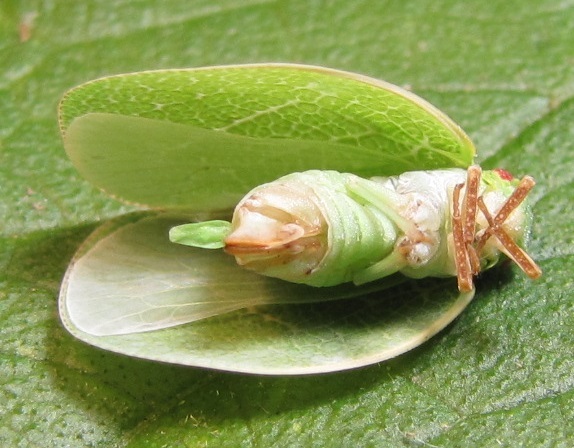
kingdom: Animalia
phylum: Arthropoda
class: Insecta
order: Hemiptera
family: Acanaloniidae
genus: Acanalonia
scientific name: Acanalonia servillei
